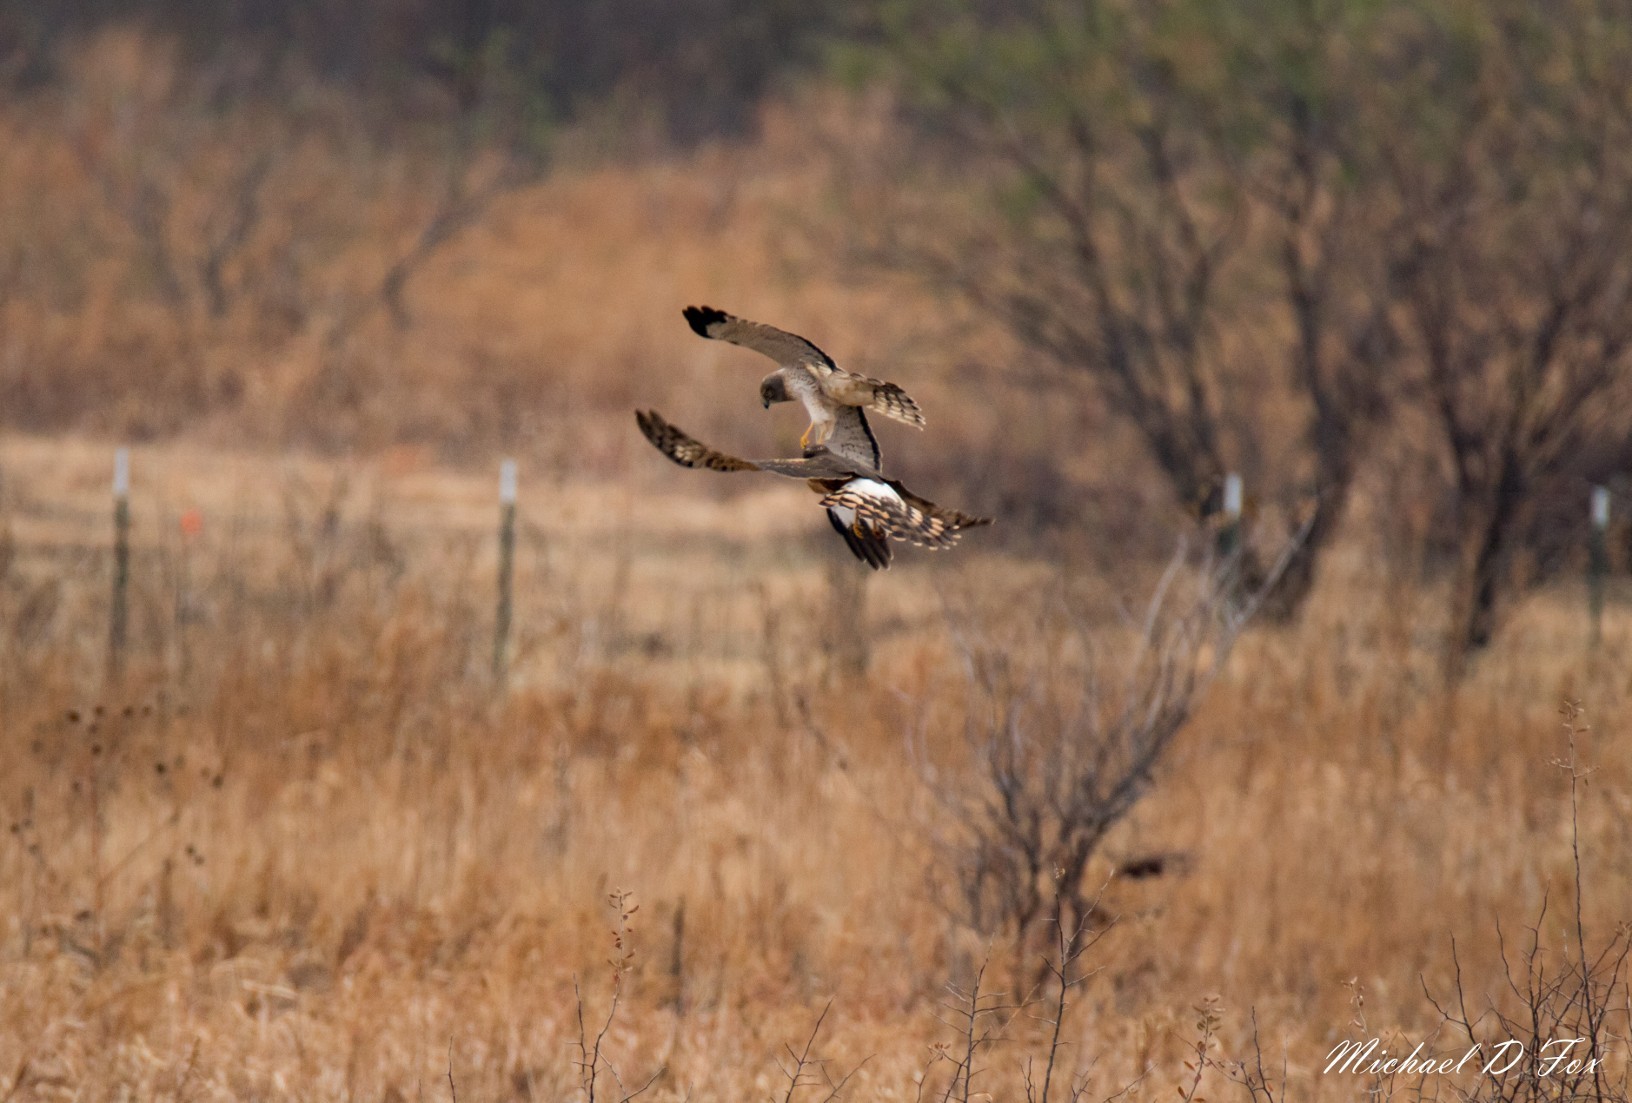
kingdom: Animalia
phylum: Chordata
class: Aves
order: Accipitriformes
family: Accipitridae
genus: Circus
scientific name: Circus cyaneus
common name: Hen harrier
